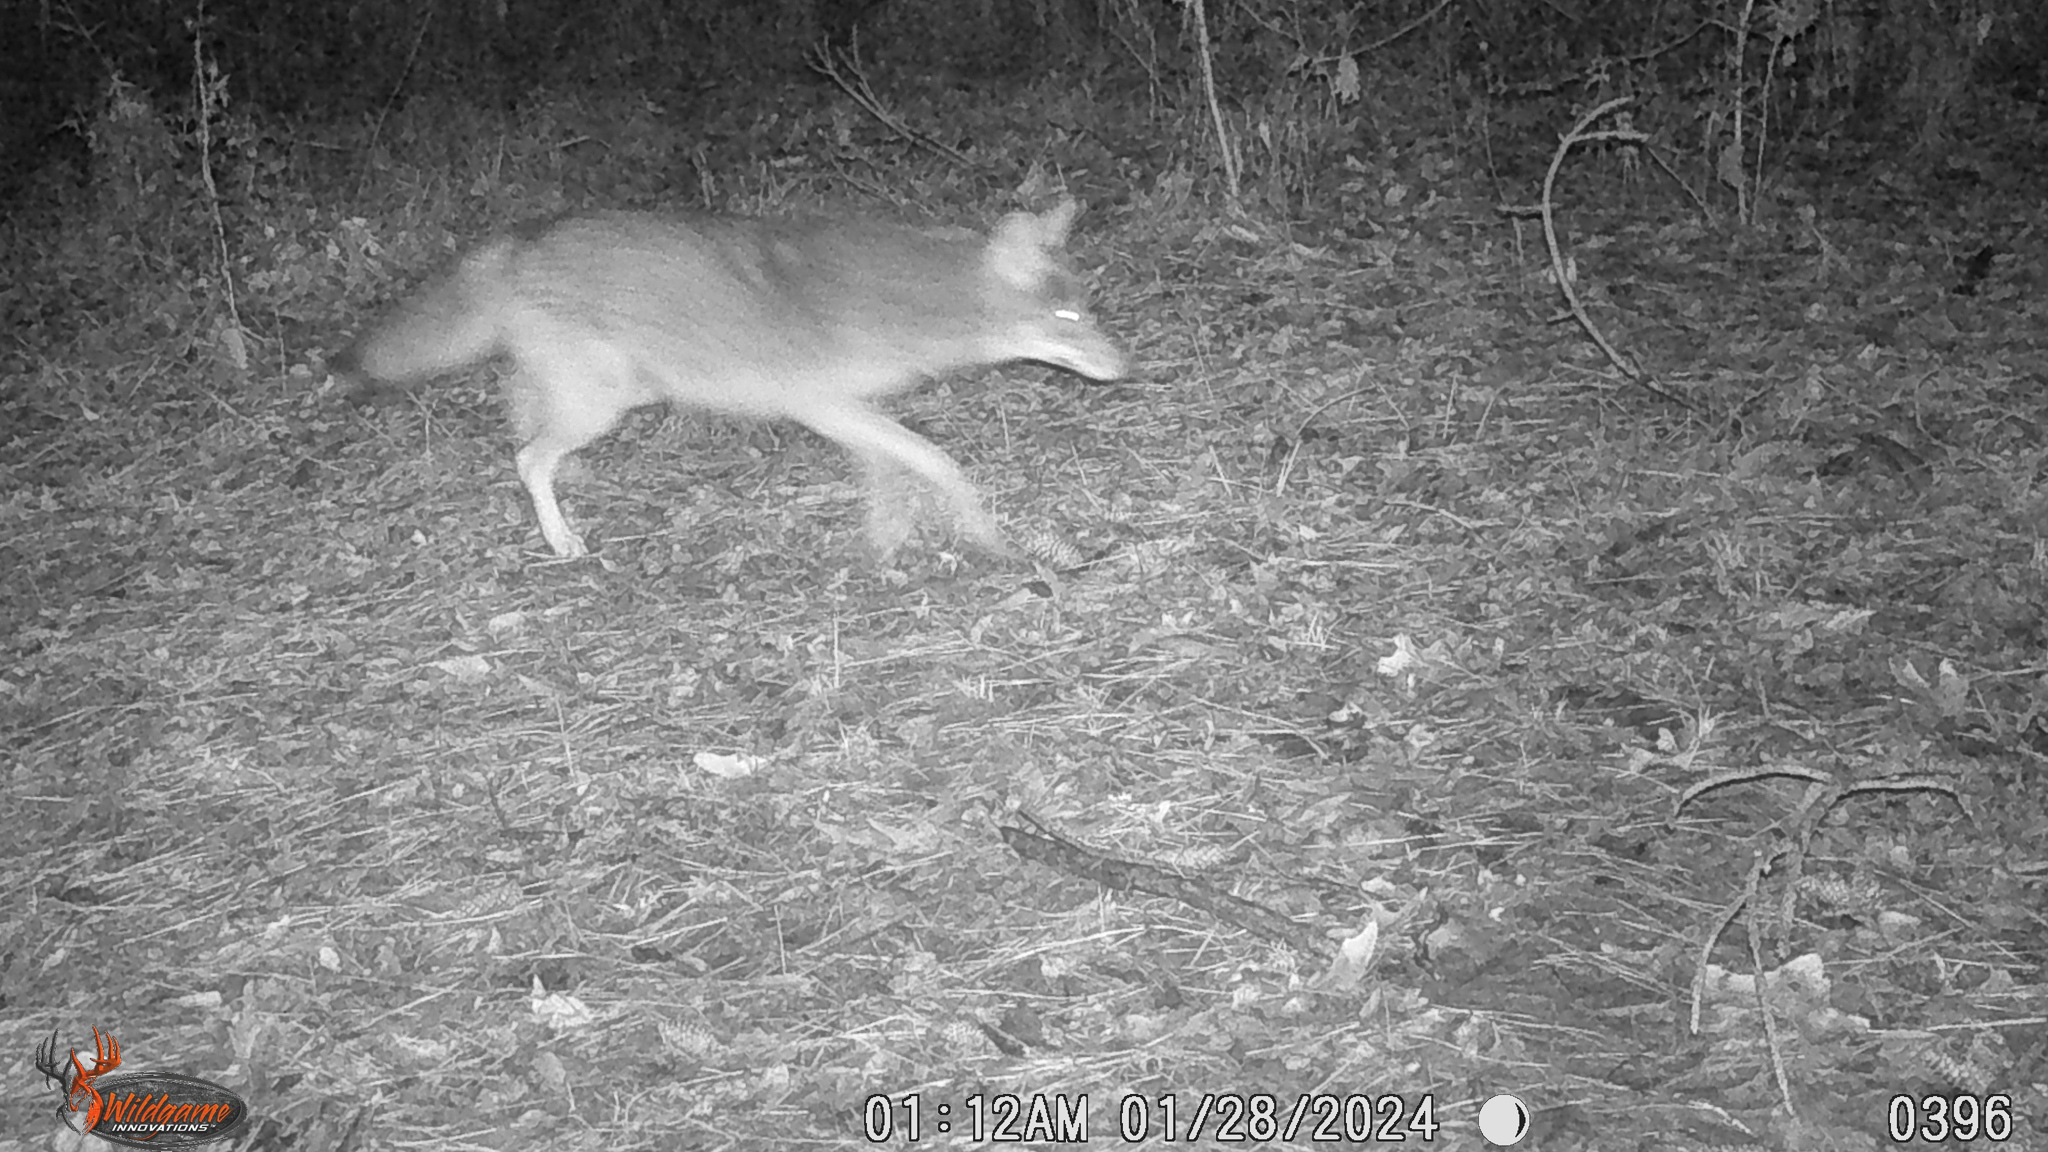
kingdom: Animalia
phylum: Chordata
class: Mammalia
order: Carnivora
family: Canidae
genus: Canis
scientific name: Canis latrans
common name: Coyote
